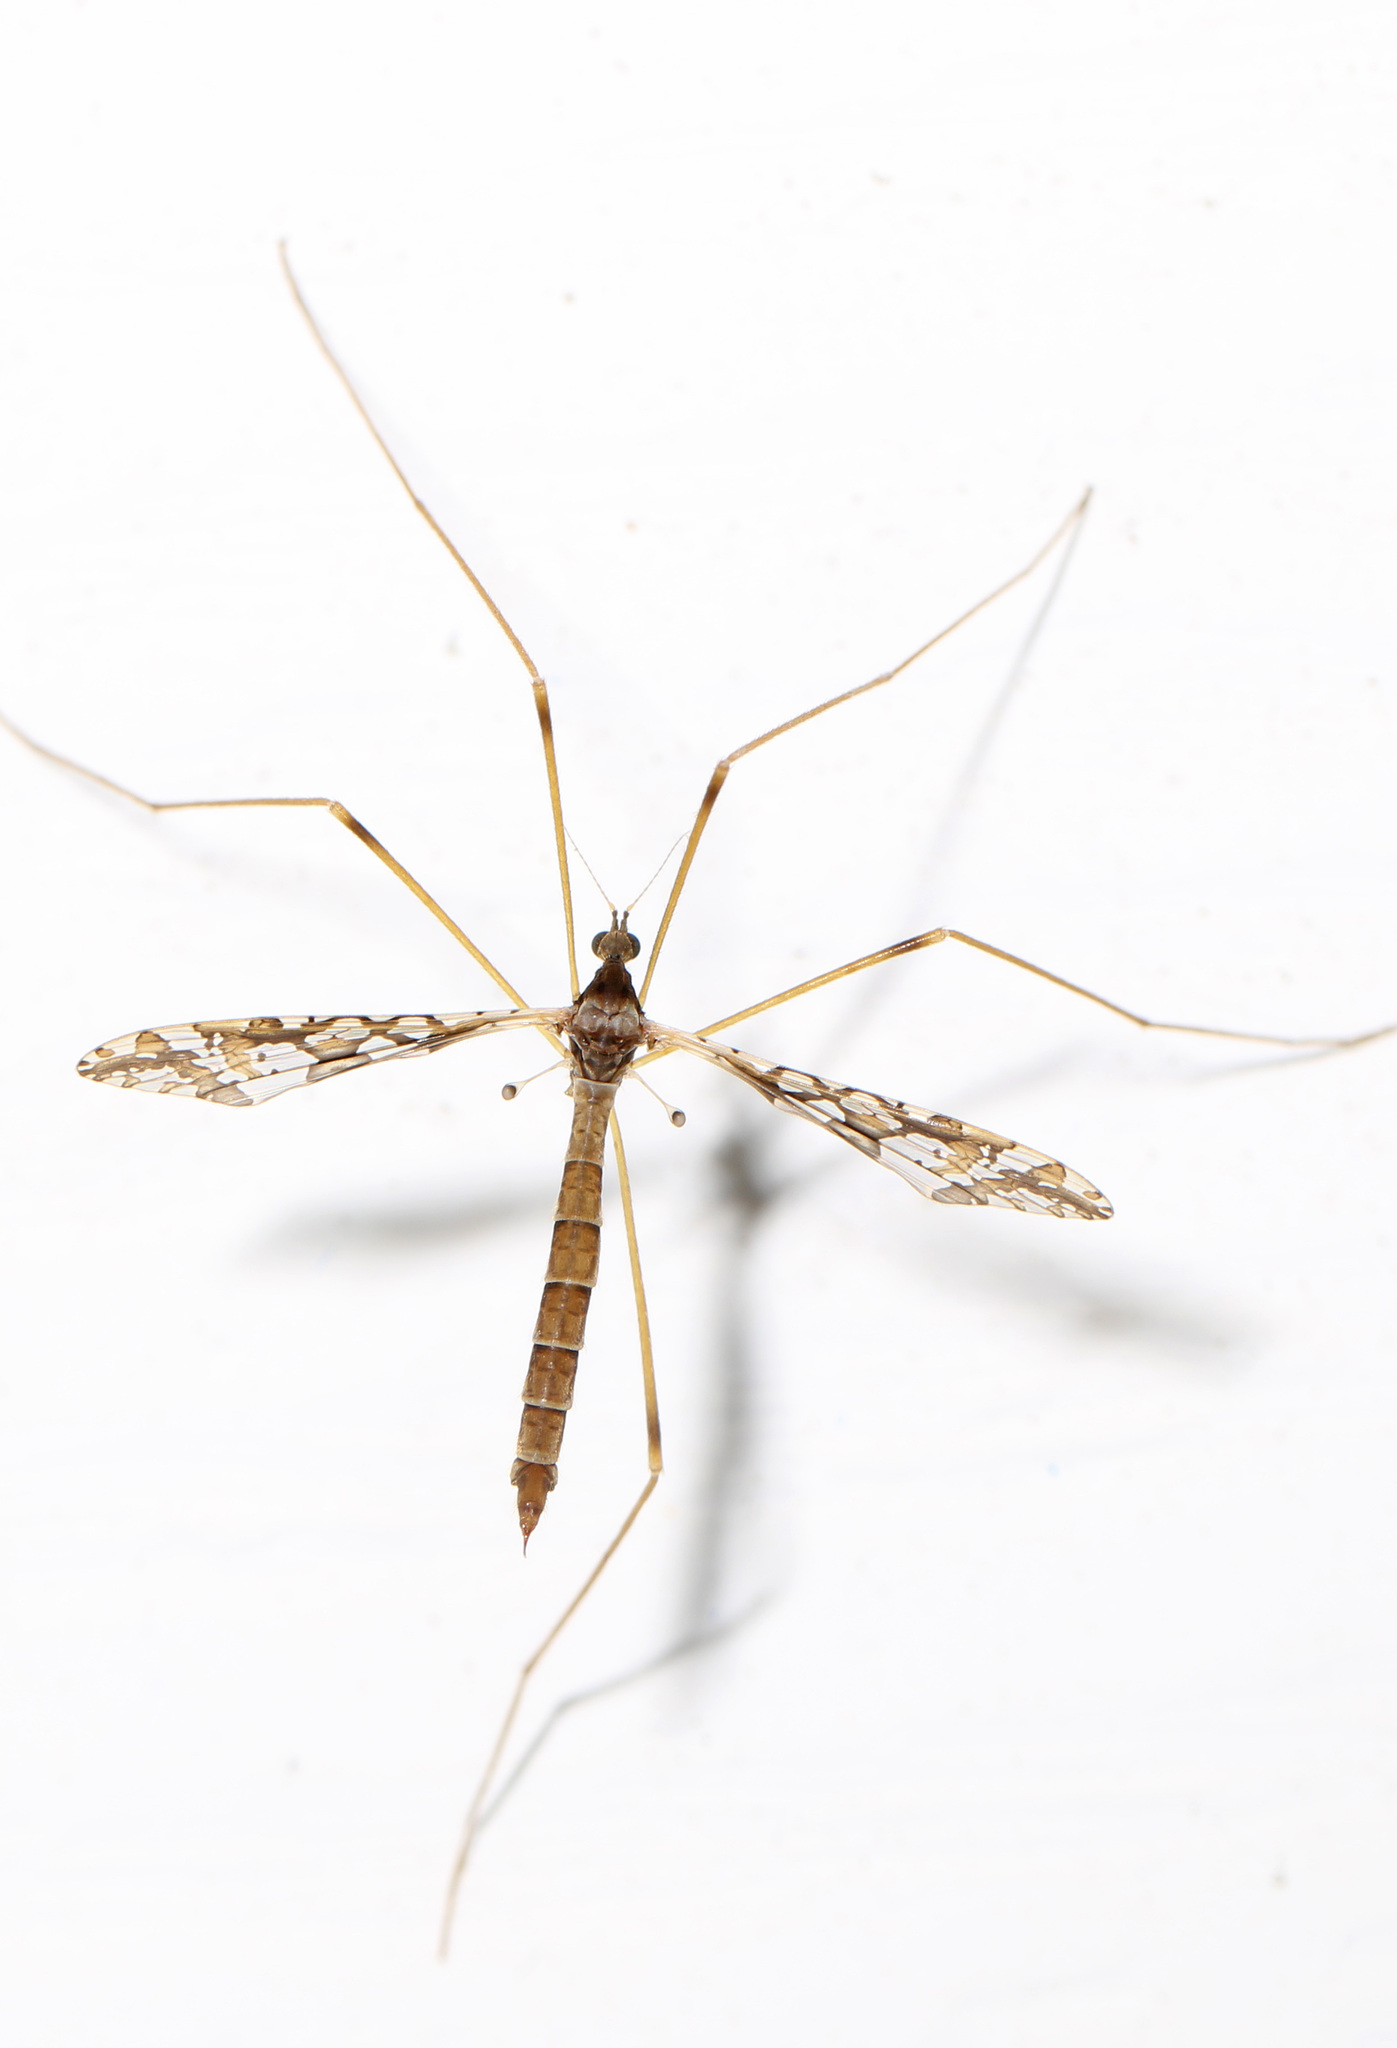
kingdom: Animalia
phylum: Arthropoda
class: Insecta
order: Diptera
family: Limoniidae
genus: Epiphragma
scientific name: Epiphragma solatrix
